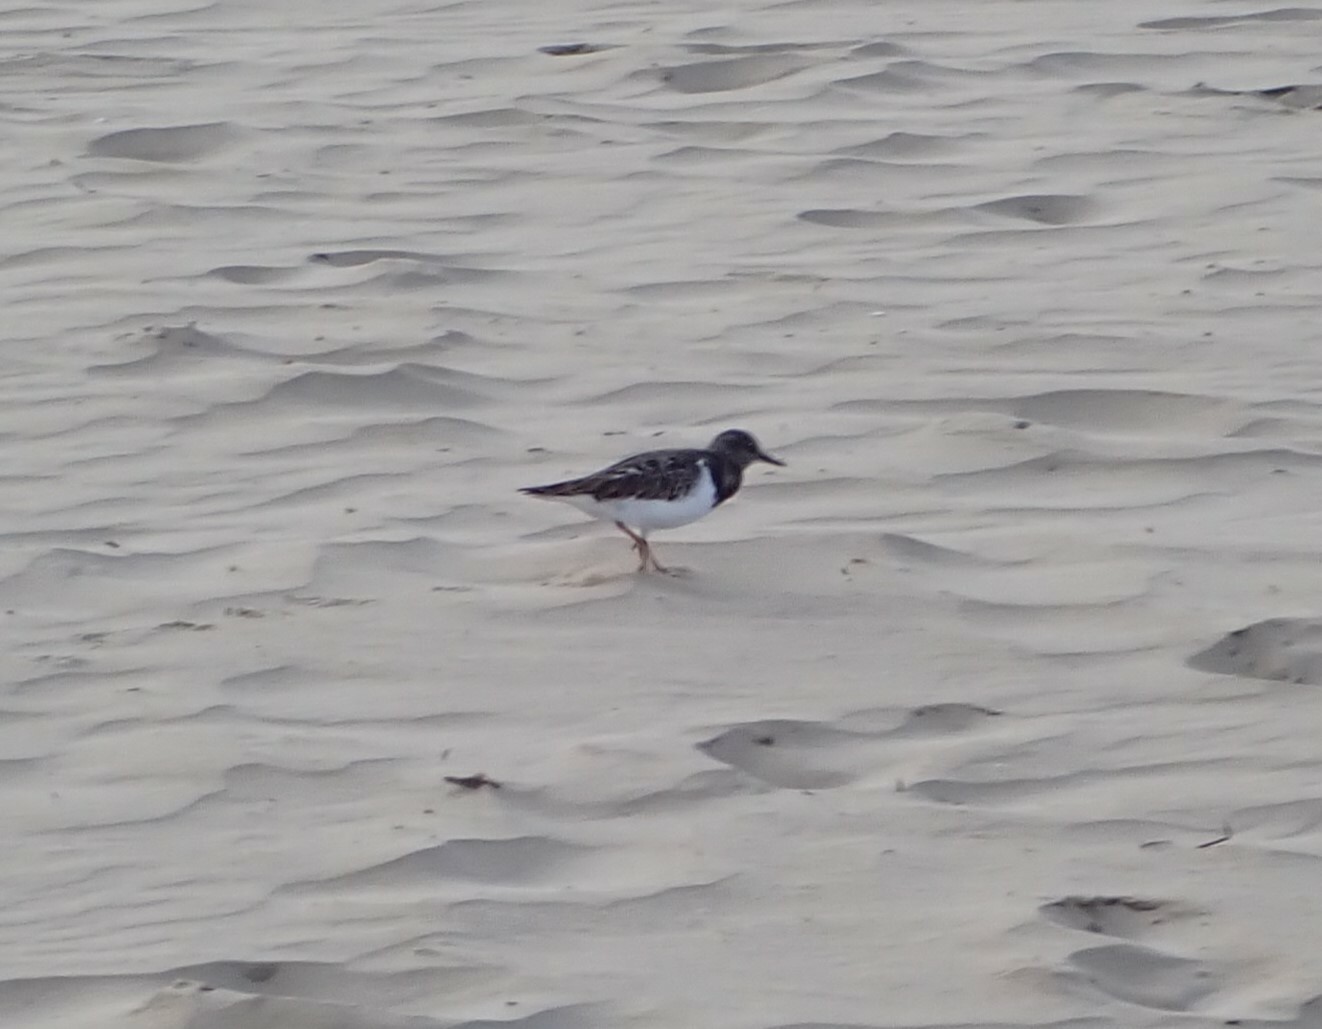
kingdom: Animalia
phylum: Chordata
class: Aves
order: Charadriiformes
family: Scolopacidae
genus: Arenaria
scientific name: Arenaria interpres
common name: Ruddy turnstone
